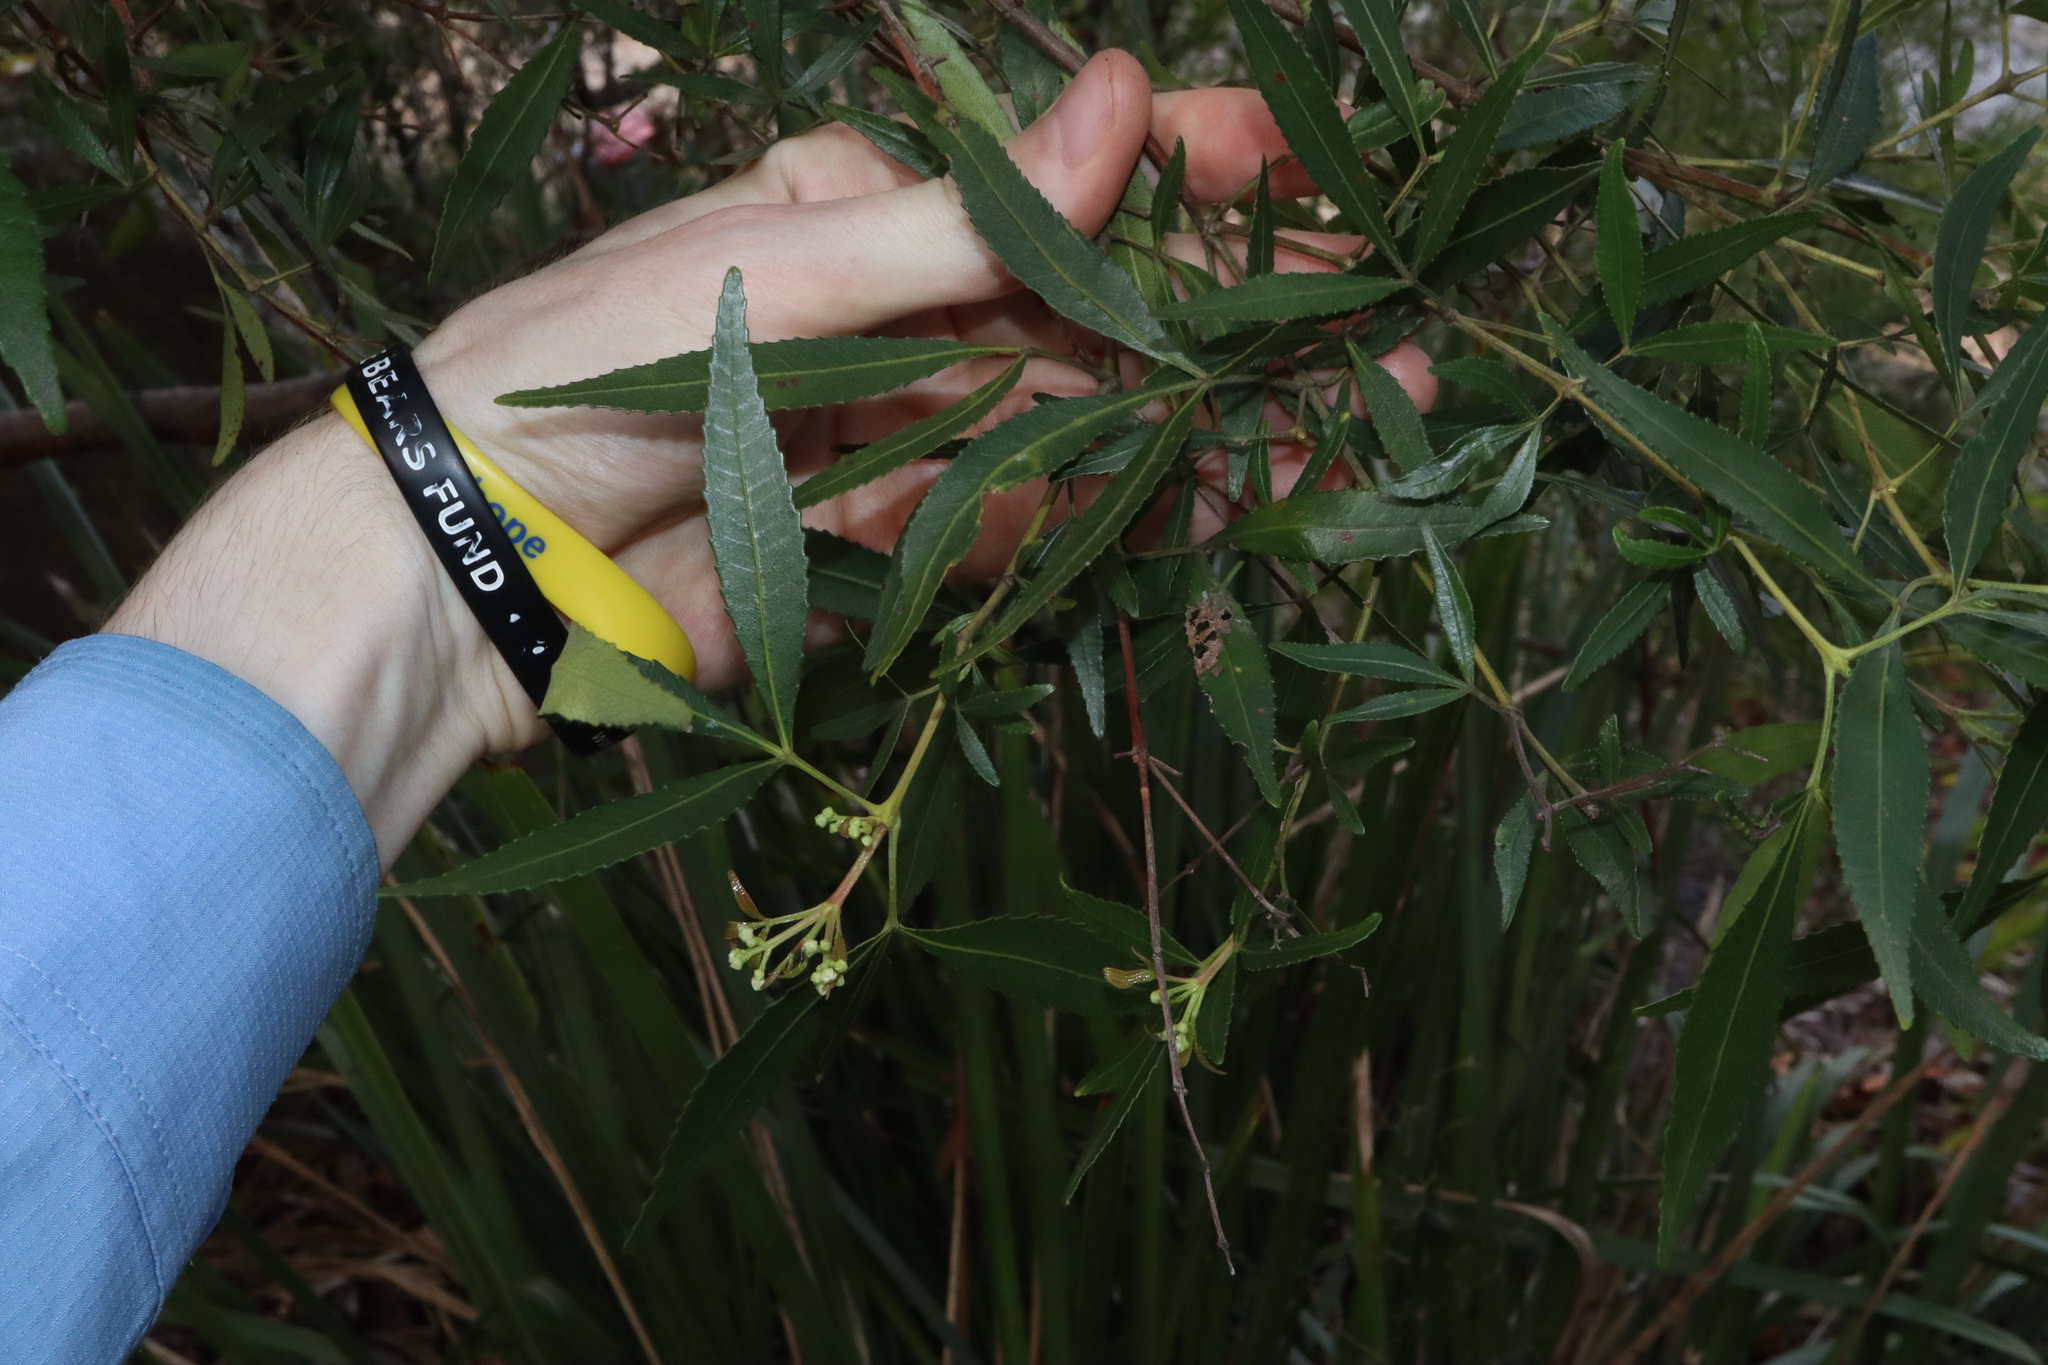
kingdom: Plantae
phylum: Tracheophyta
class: Magnoliopsida
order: Oxalidales
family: Cunoniaceae
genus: Ceratopetalum
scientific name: Ceratopetalum gummiferum
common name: Christmasbush
